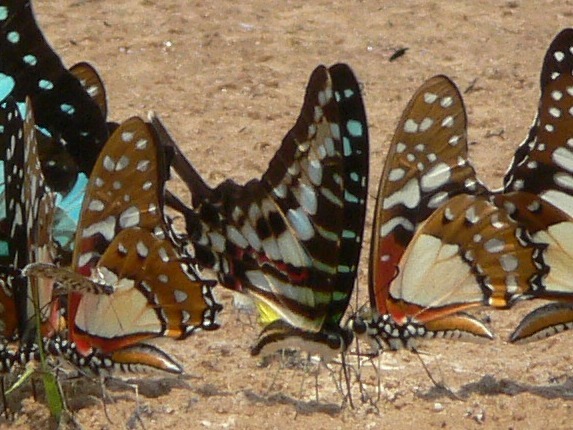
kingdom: Animalia
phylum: Arthropoda
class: Insecta
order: Lepidoptera
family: Papilionidae
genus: Graphium
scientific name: Graphium policenes
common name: Common swordtail
